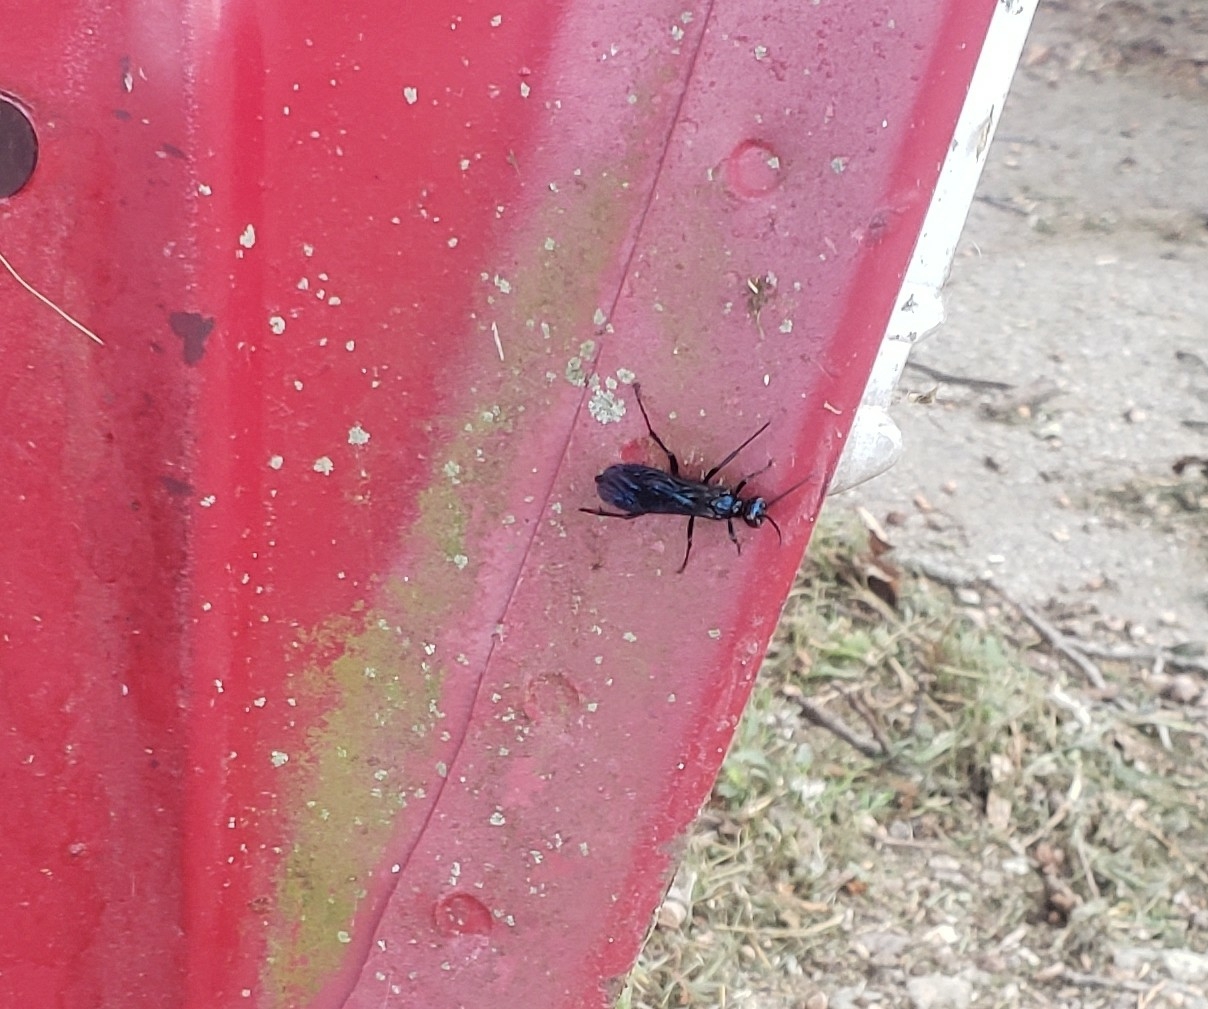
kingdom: Animalia
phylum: Arthropoda
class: Insecta
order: Hymenoptera
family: Sphecidae
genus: Chalybion
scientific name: Chalybion californicum
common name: Mud dauber
